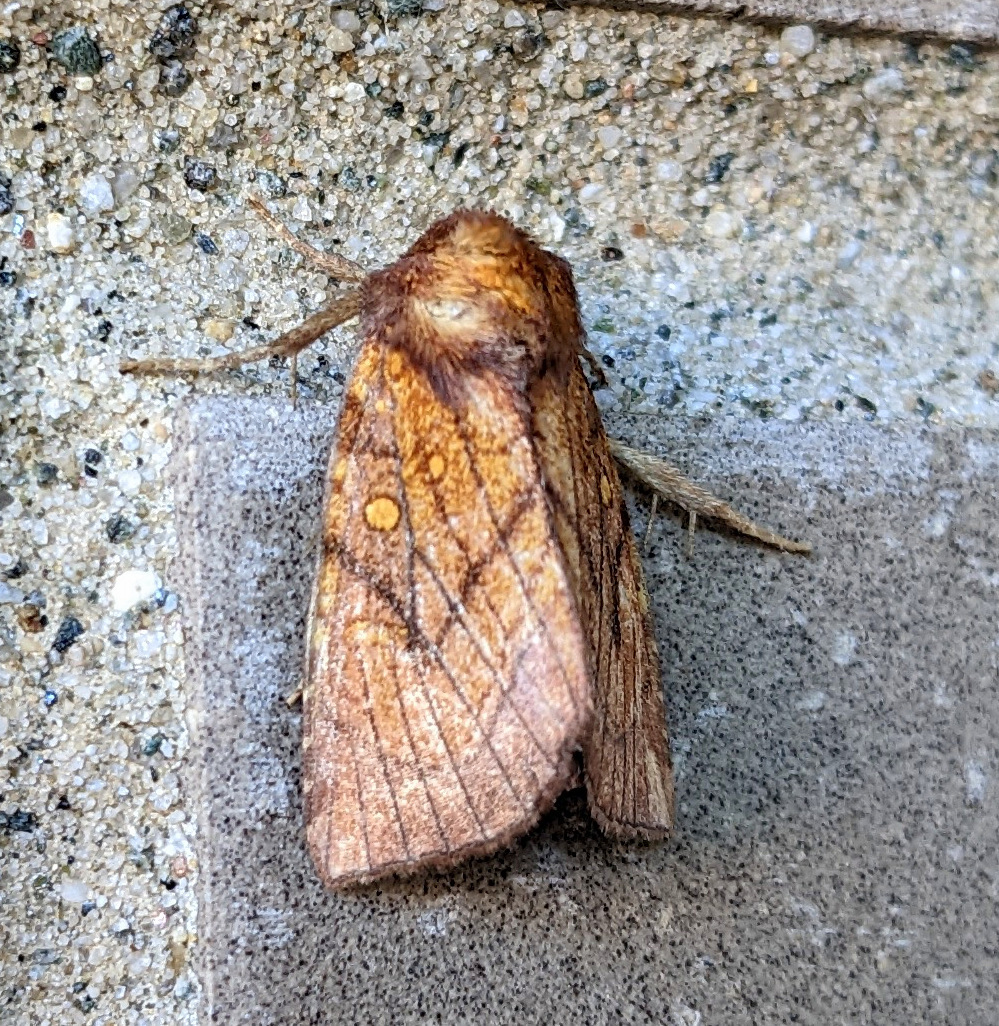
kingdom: Animalia
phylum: Arthropoda
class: Insecta
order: Lepidoptera
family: Noctuidae
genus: Papaipema
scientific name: Papaipema inquaesita
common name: Sensitive fern borer moth
